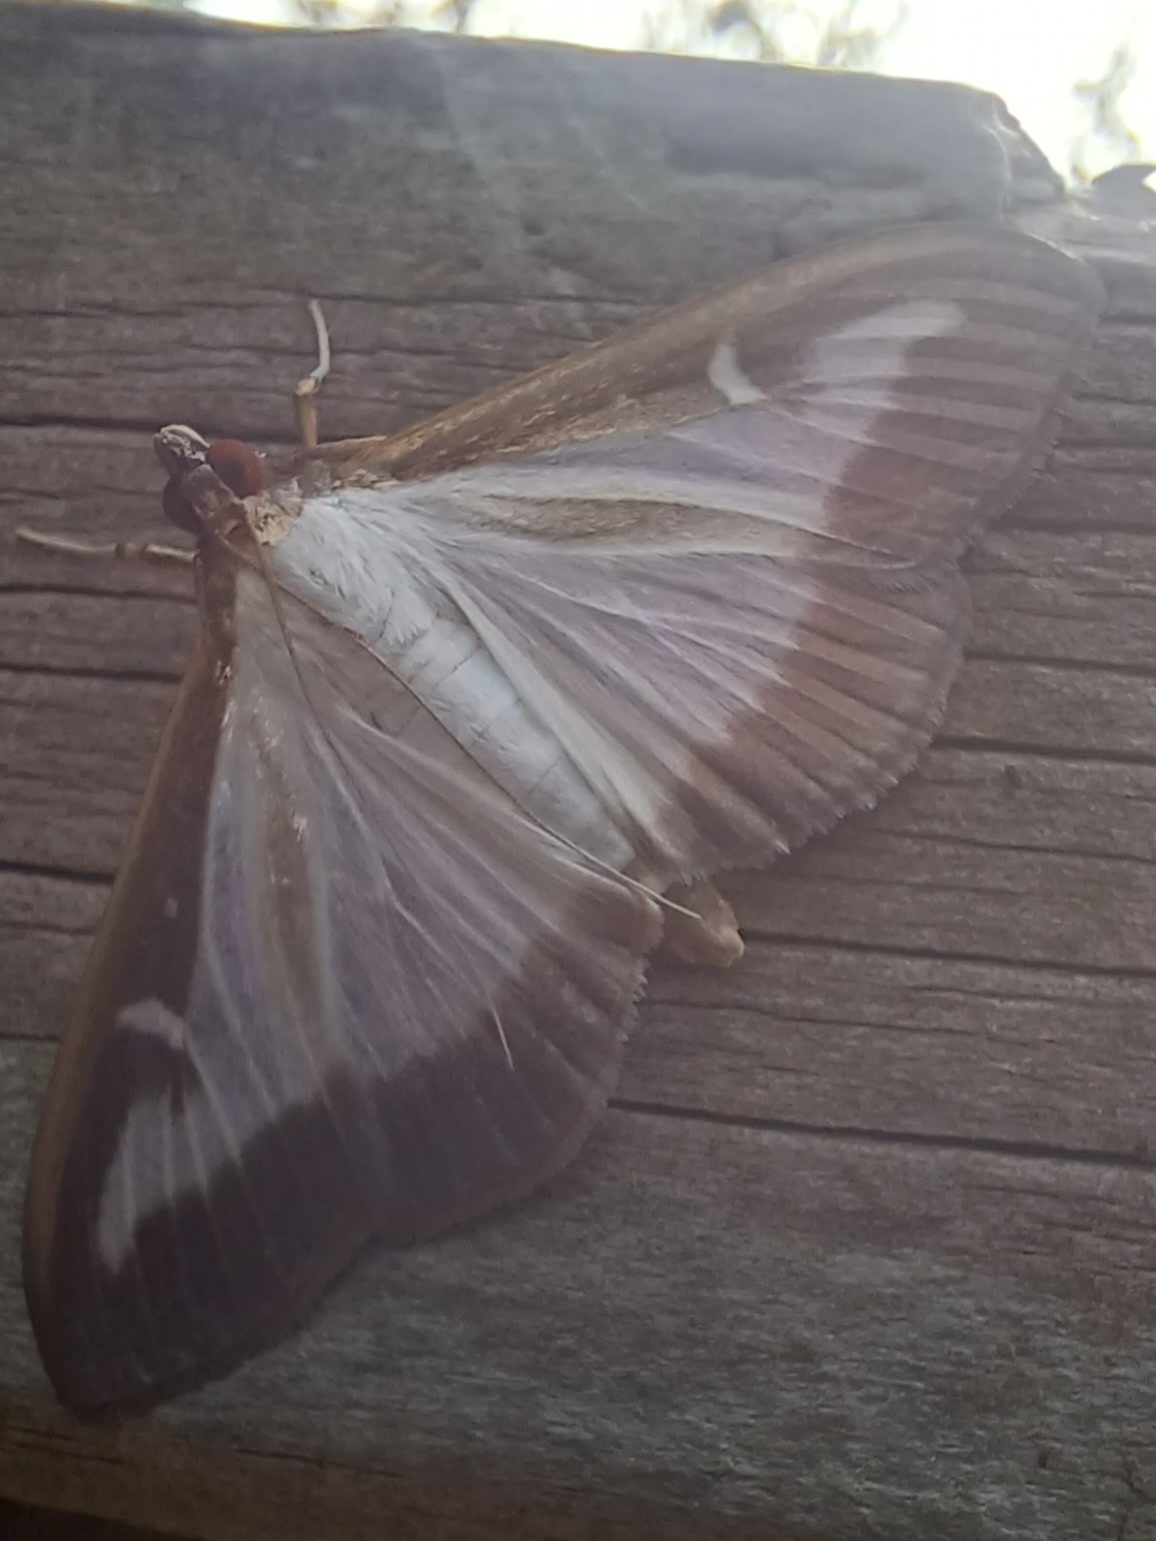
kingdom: Animalia
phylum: Arthropoda
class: Insecta
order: Lepidoptera
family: Crambidae
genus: Cydalima
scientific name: Cydalima perspectalis
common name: Box tree moth
